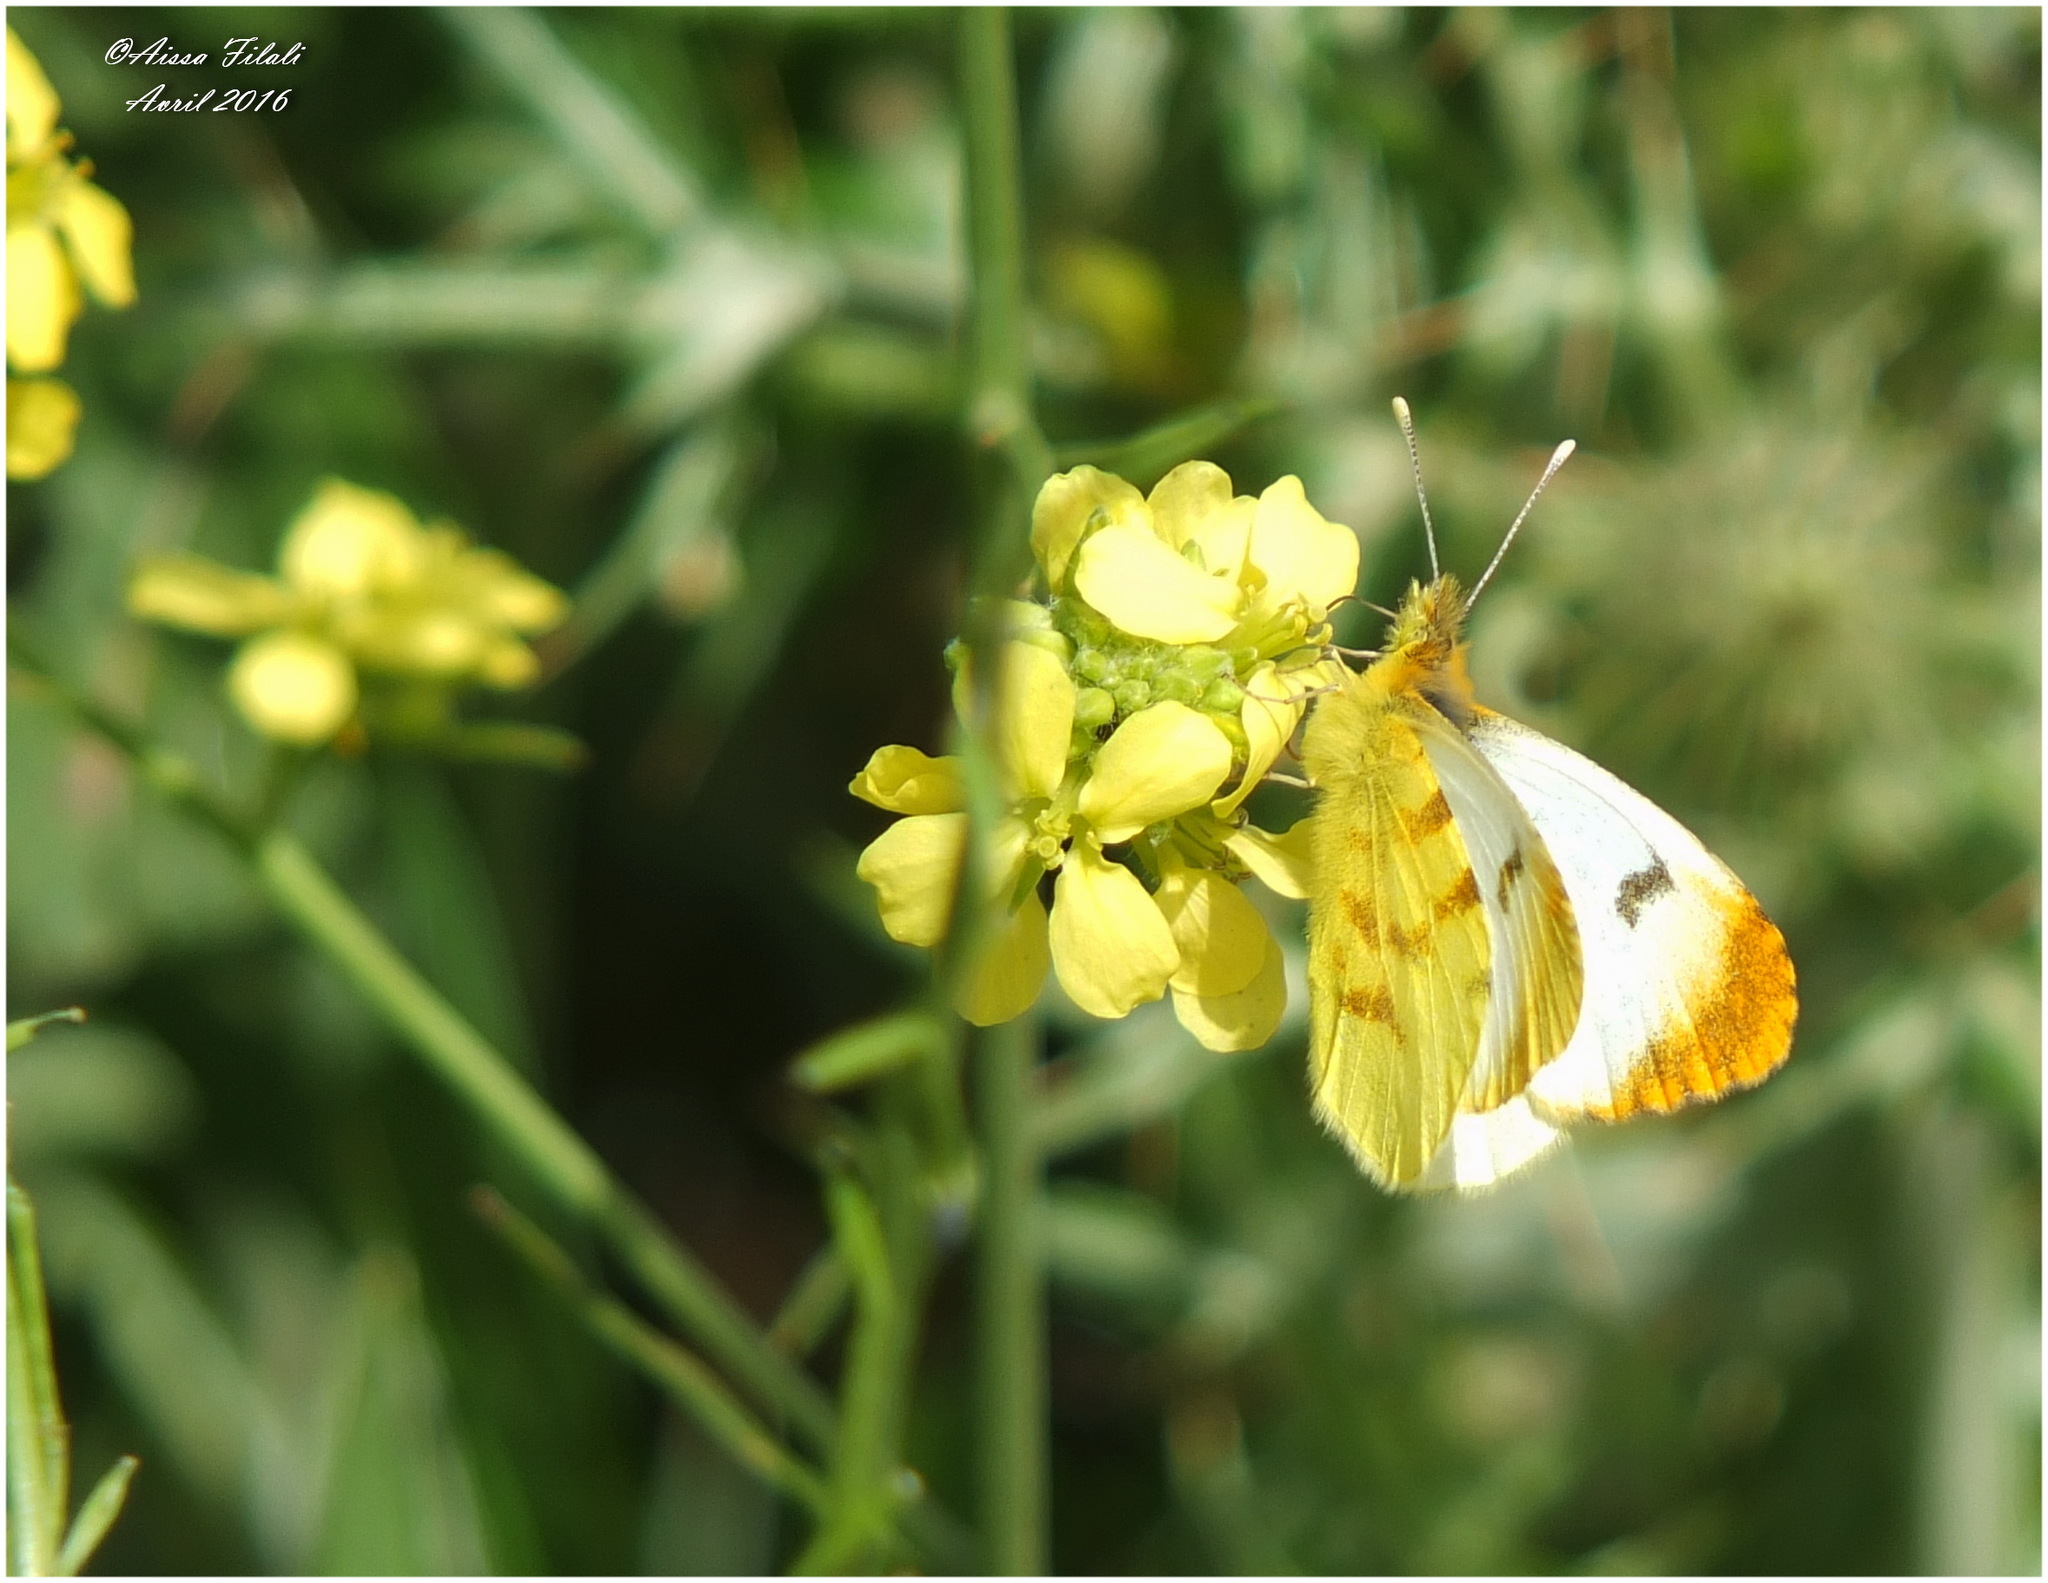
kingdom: Animalia
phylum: Arthropoda
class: Insecta
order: Lepidoptera
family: Pieridae
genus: Anthocharis
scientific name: Anthocharis belia
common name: Moroccan orange tip
